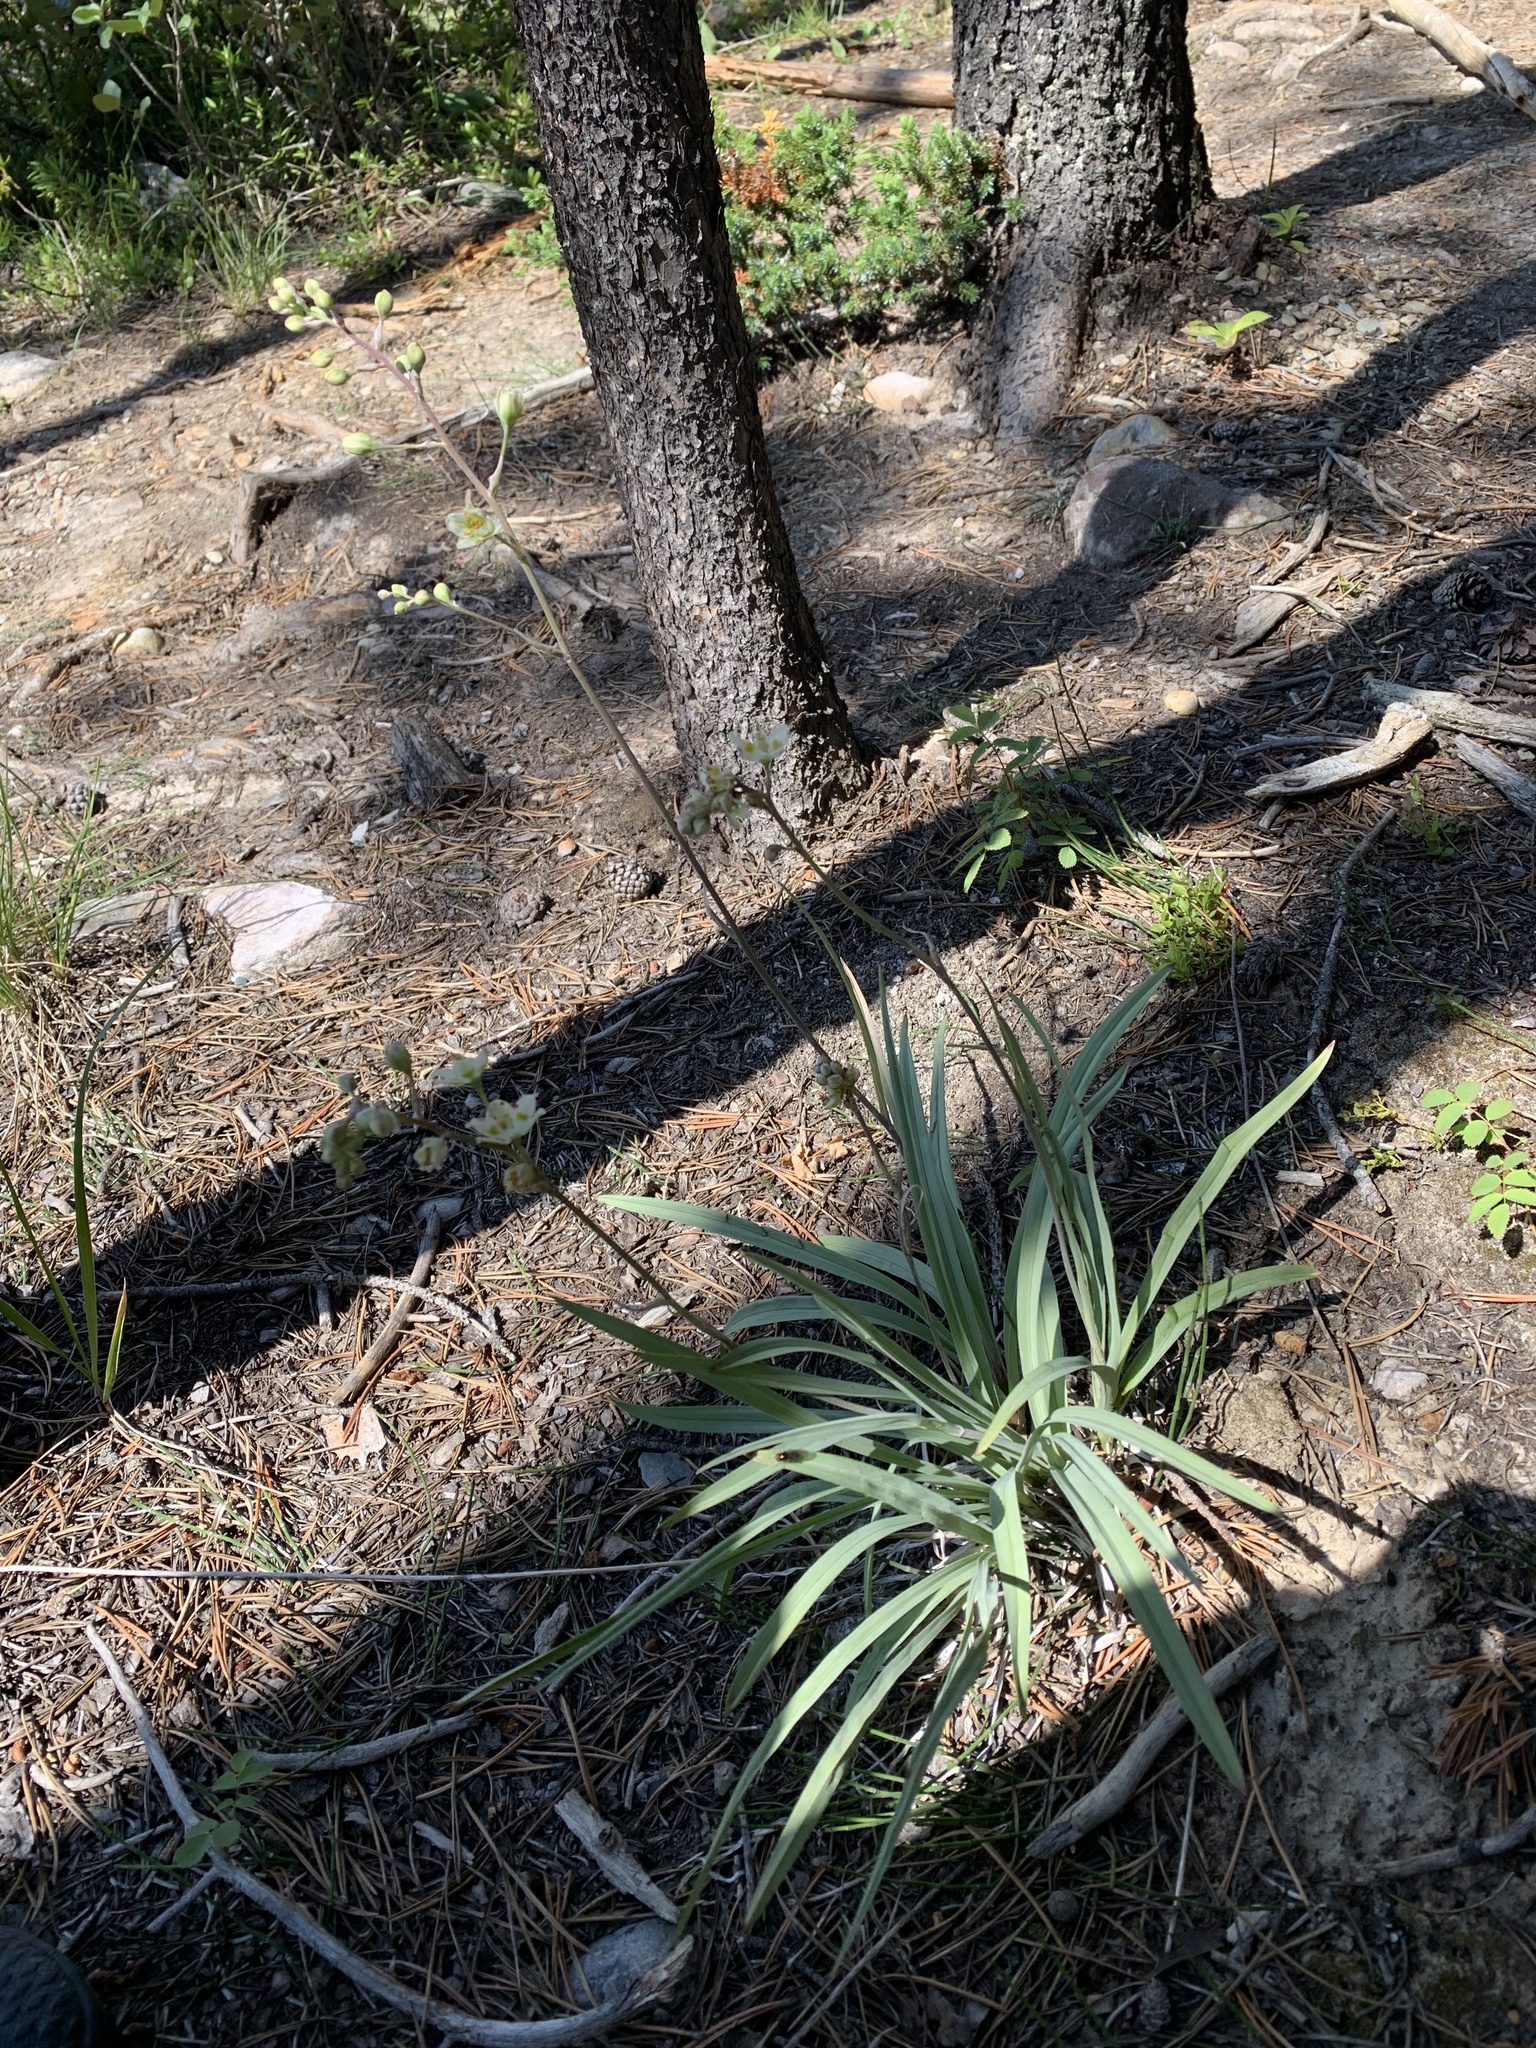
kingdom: Plantae
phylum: Tracheophyta
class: Liliopsida
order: Liliales
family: Melanthiaceae
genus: Anticlea
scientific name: Anticlea elegans
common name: Mountain death camas
